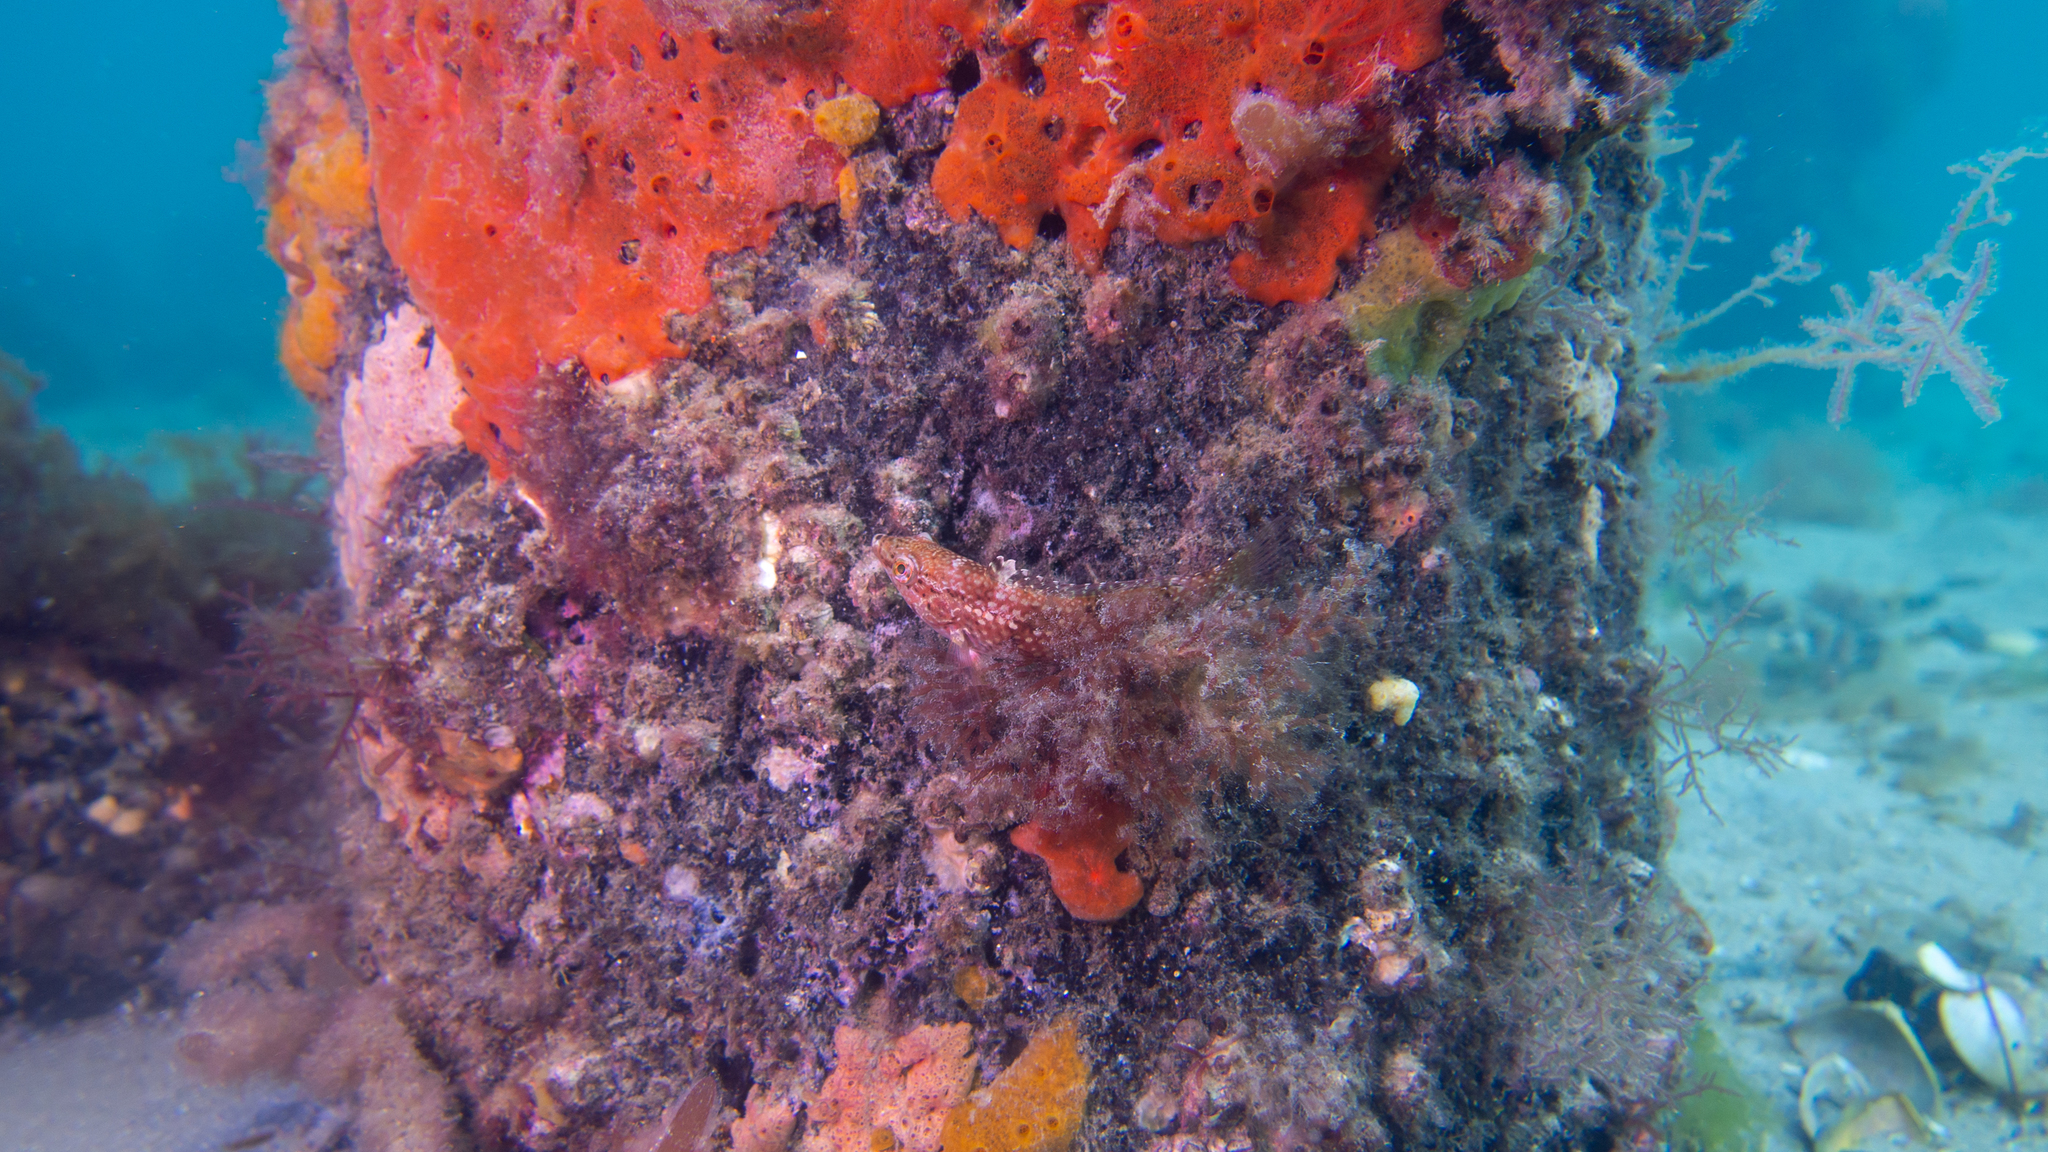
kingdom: Animalia
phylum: Chordata
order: Perciformes
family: Labridae
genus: Notolabrus
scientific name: Notolabrus tetricus
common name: Blue-throated parrotfish
